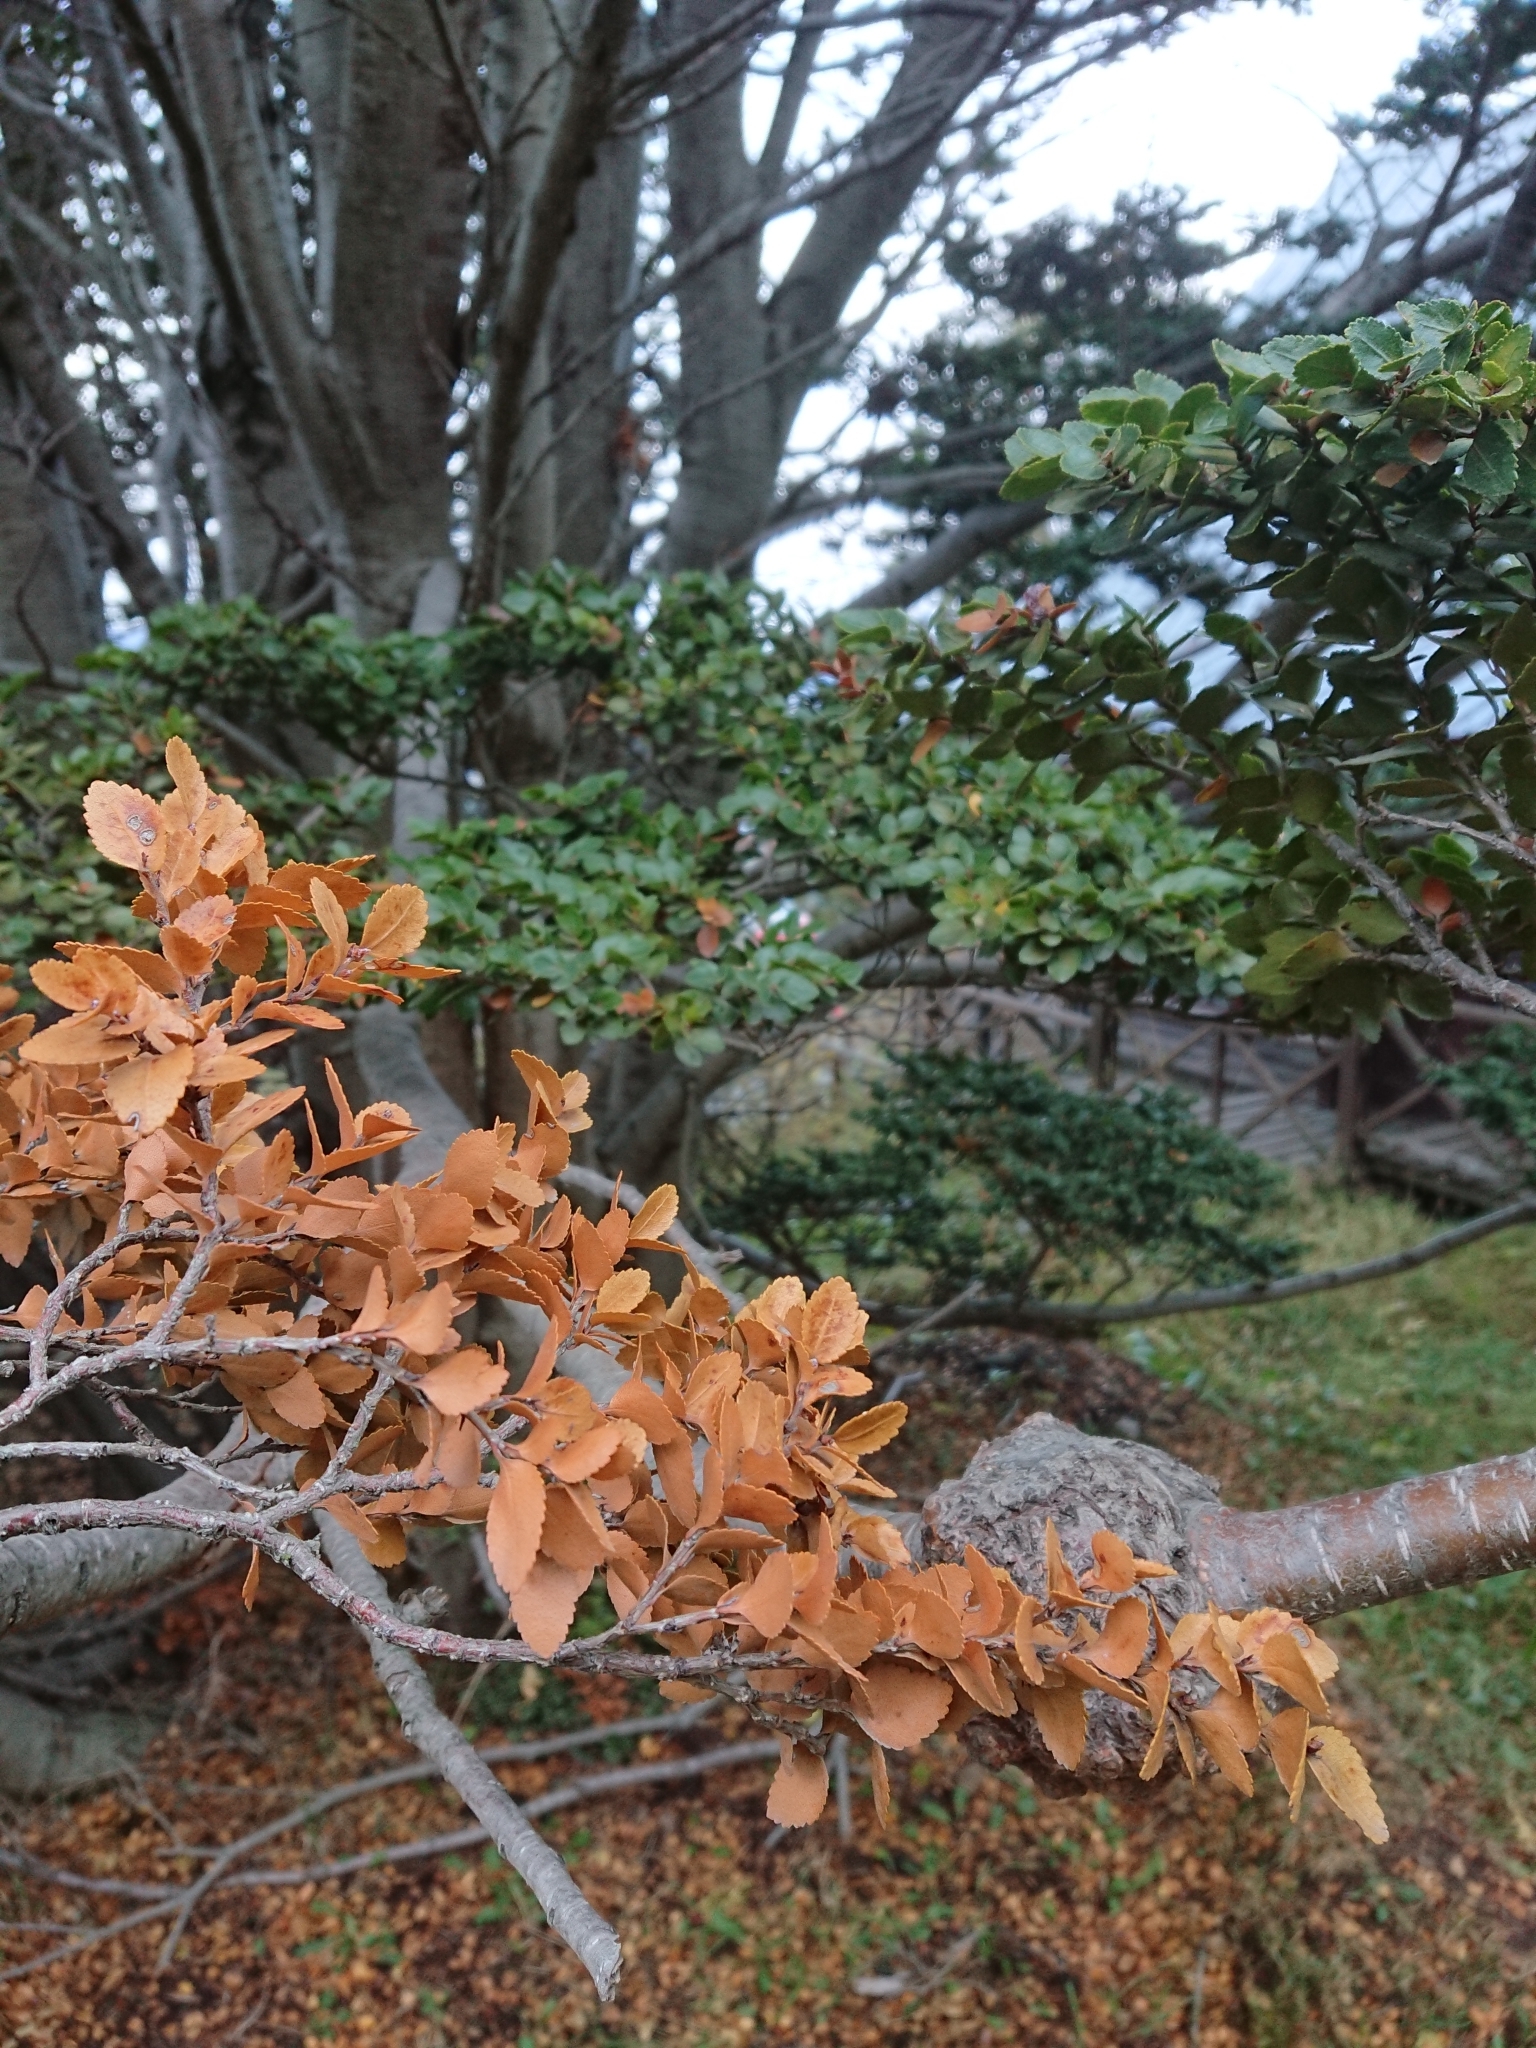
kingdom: Plantae
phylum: Tracheophyta
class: Magnoliopsida
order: Fagales
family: Nothofagaceae
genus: Nothofagus
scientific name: Nothofagus betuloides
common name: Magellan's beech
